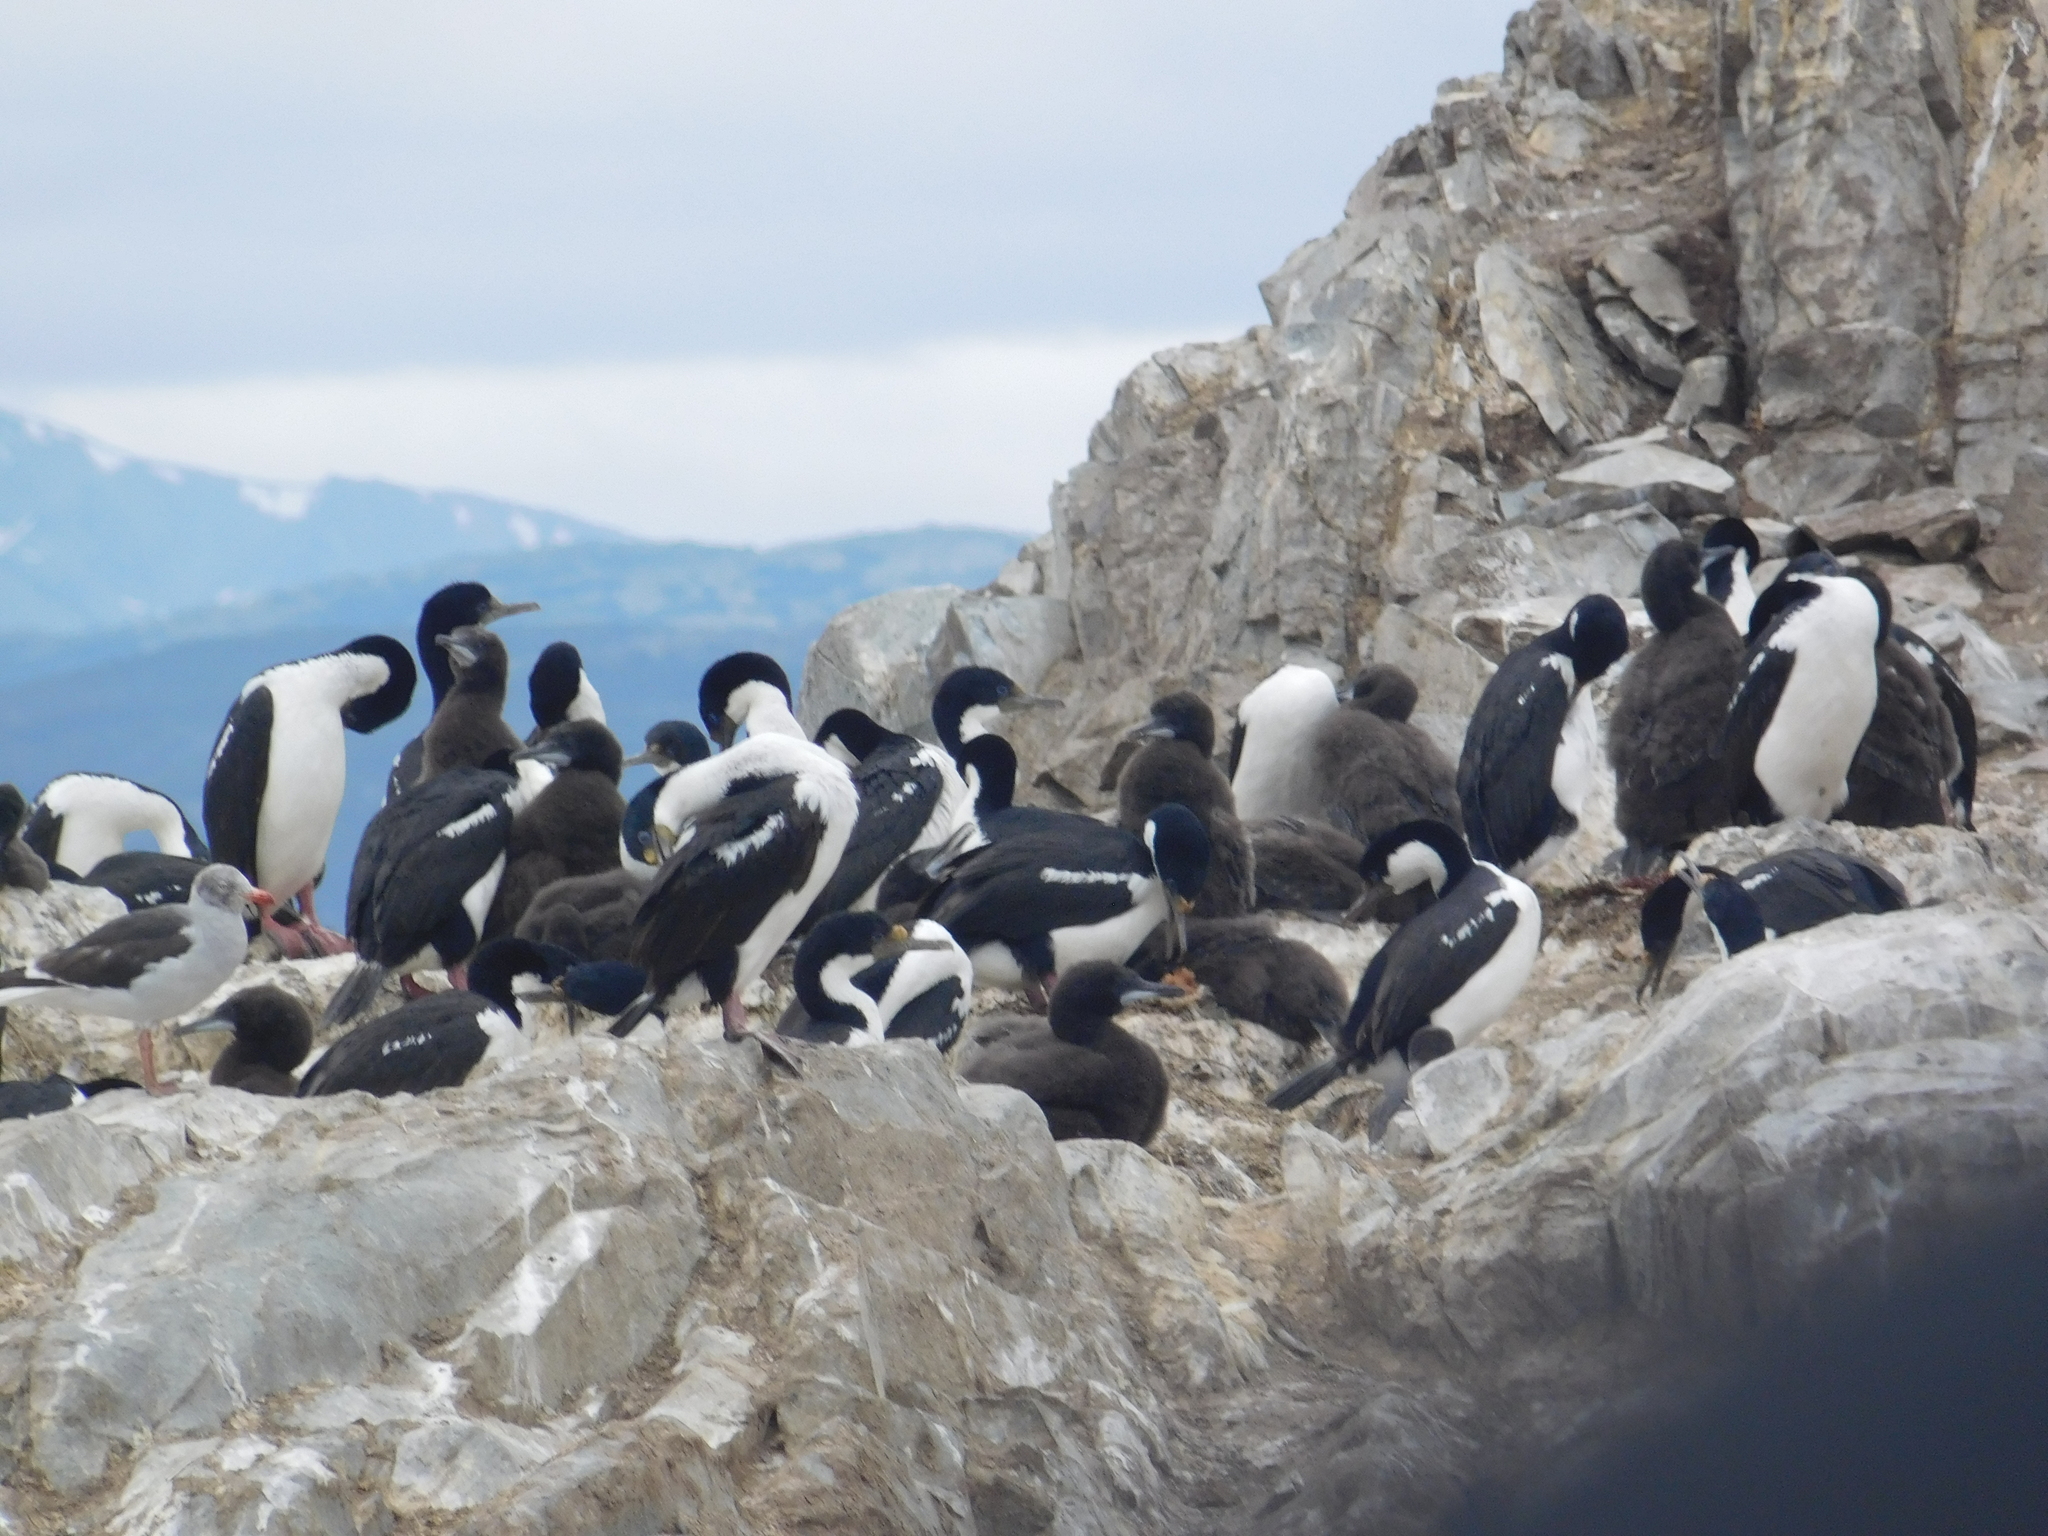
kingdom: Animalia
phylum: Chordata
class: Aves
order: Suliformes
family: Phalacrocoracidae
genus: Leucocarbo
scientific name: Leucocarbo atriceps
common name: Imperial shag
